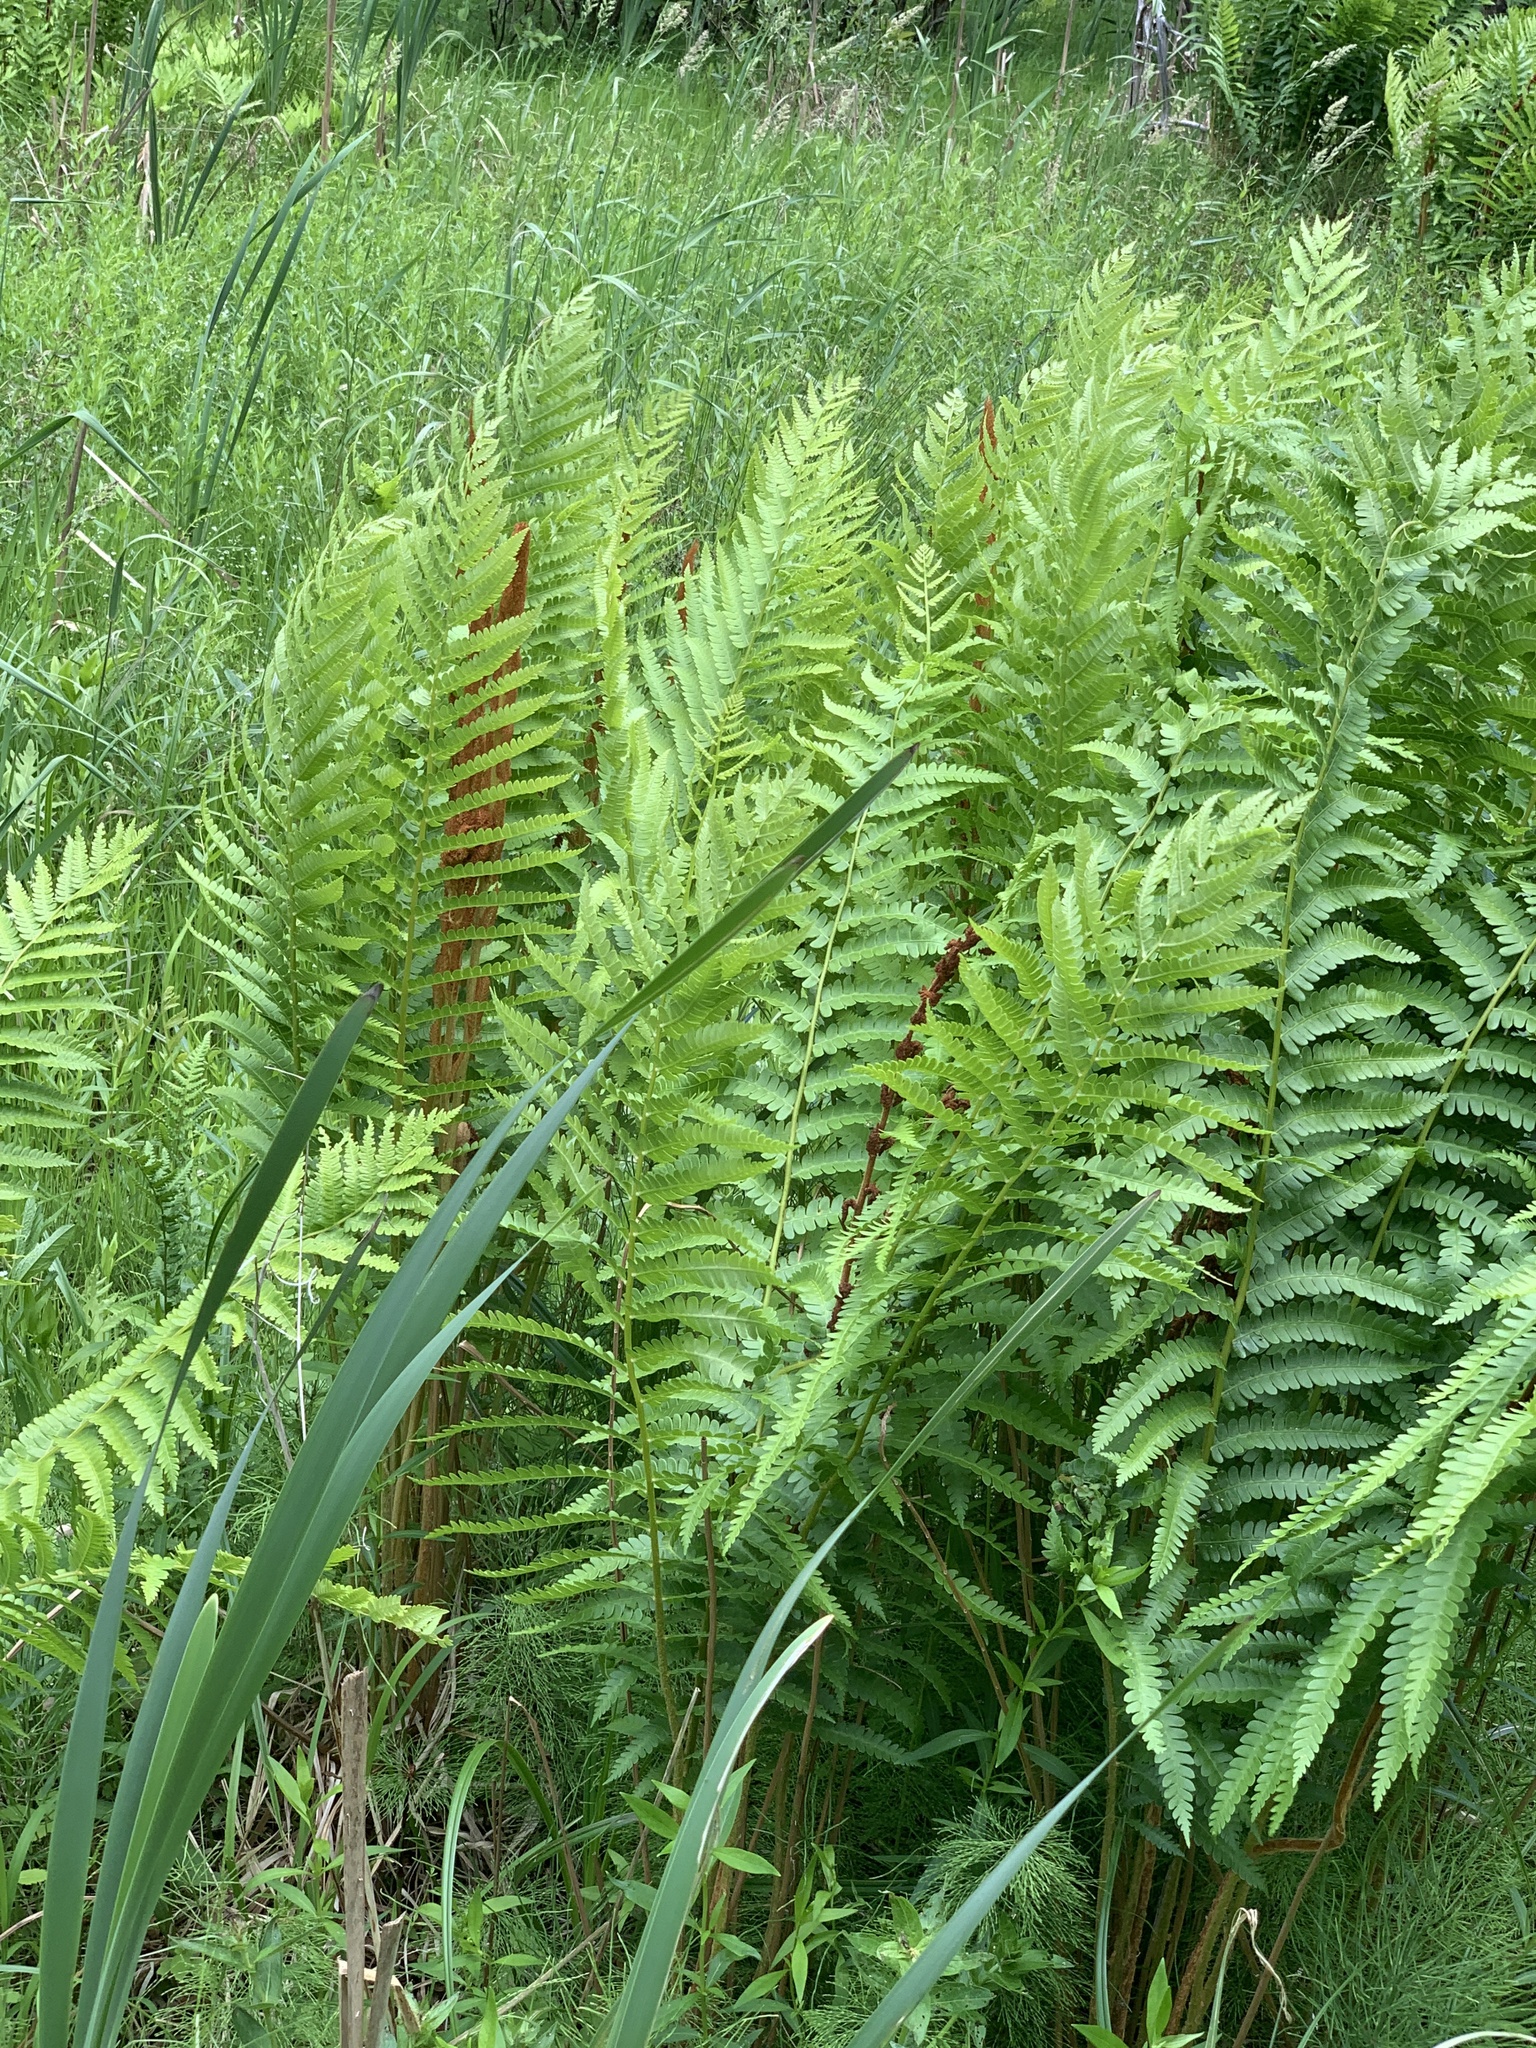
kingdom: Plantae
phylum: Tracheophyta
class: Polypodiopsida
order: Osmundales
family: Osmundaceae
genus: Osmundastrum
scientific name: Osmundastrum cinnamomeum
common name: Cinnamon fern
